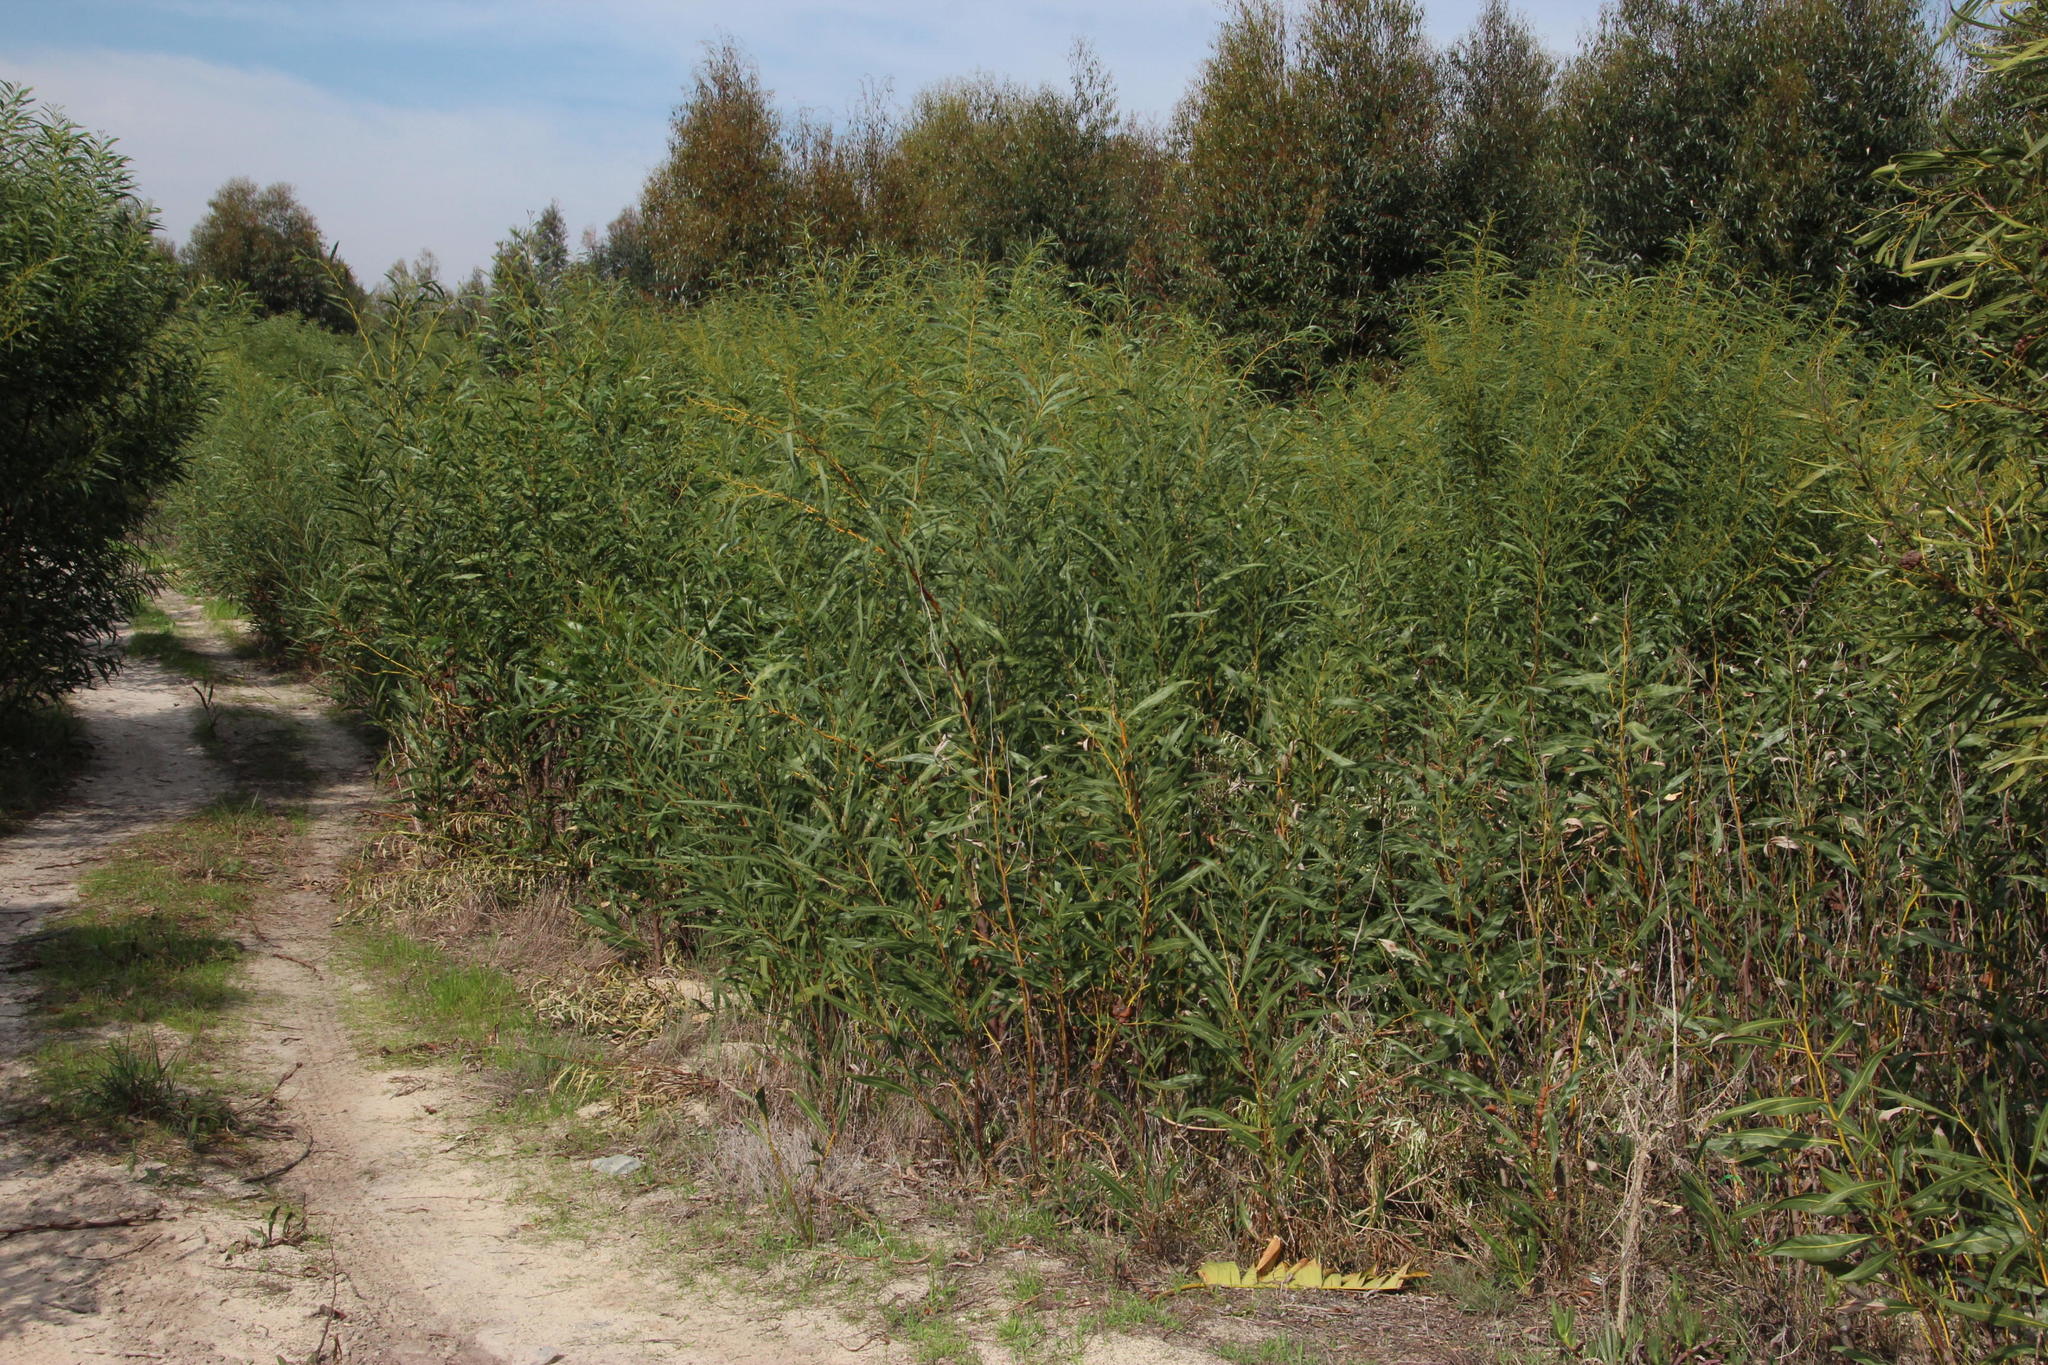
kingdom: Plantae
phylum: Tracheophyta
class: Magnoliopsida
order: Fabales
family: Fabaceae
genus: Acacia
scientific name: Acacia saligna
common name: Orange wattle
